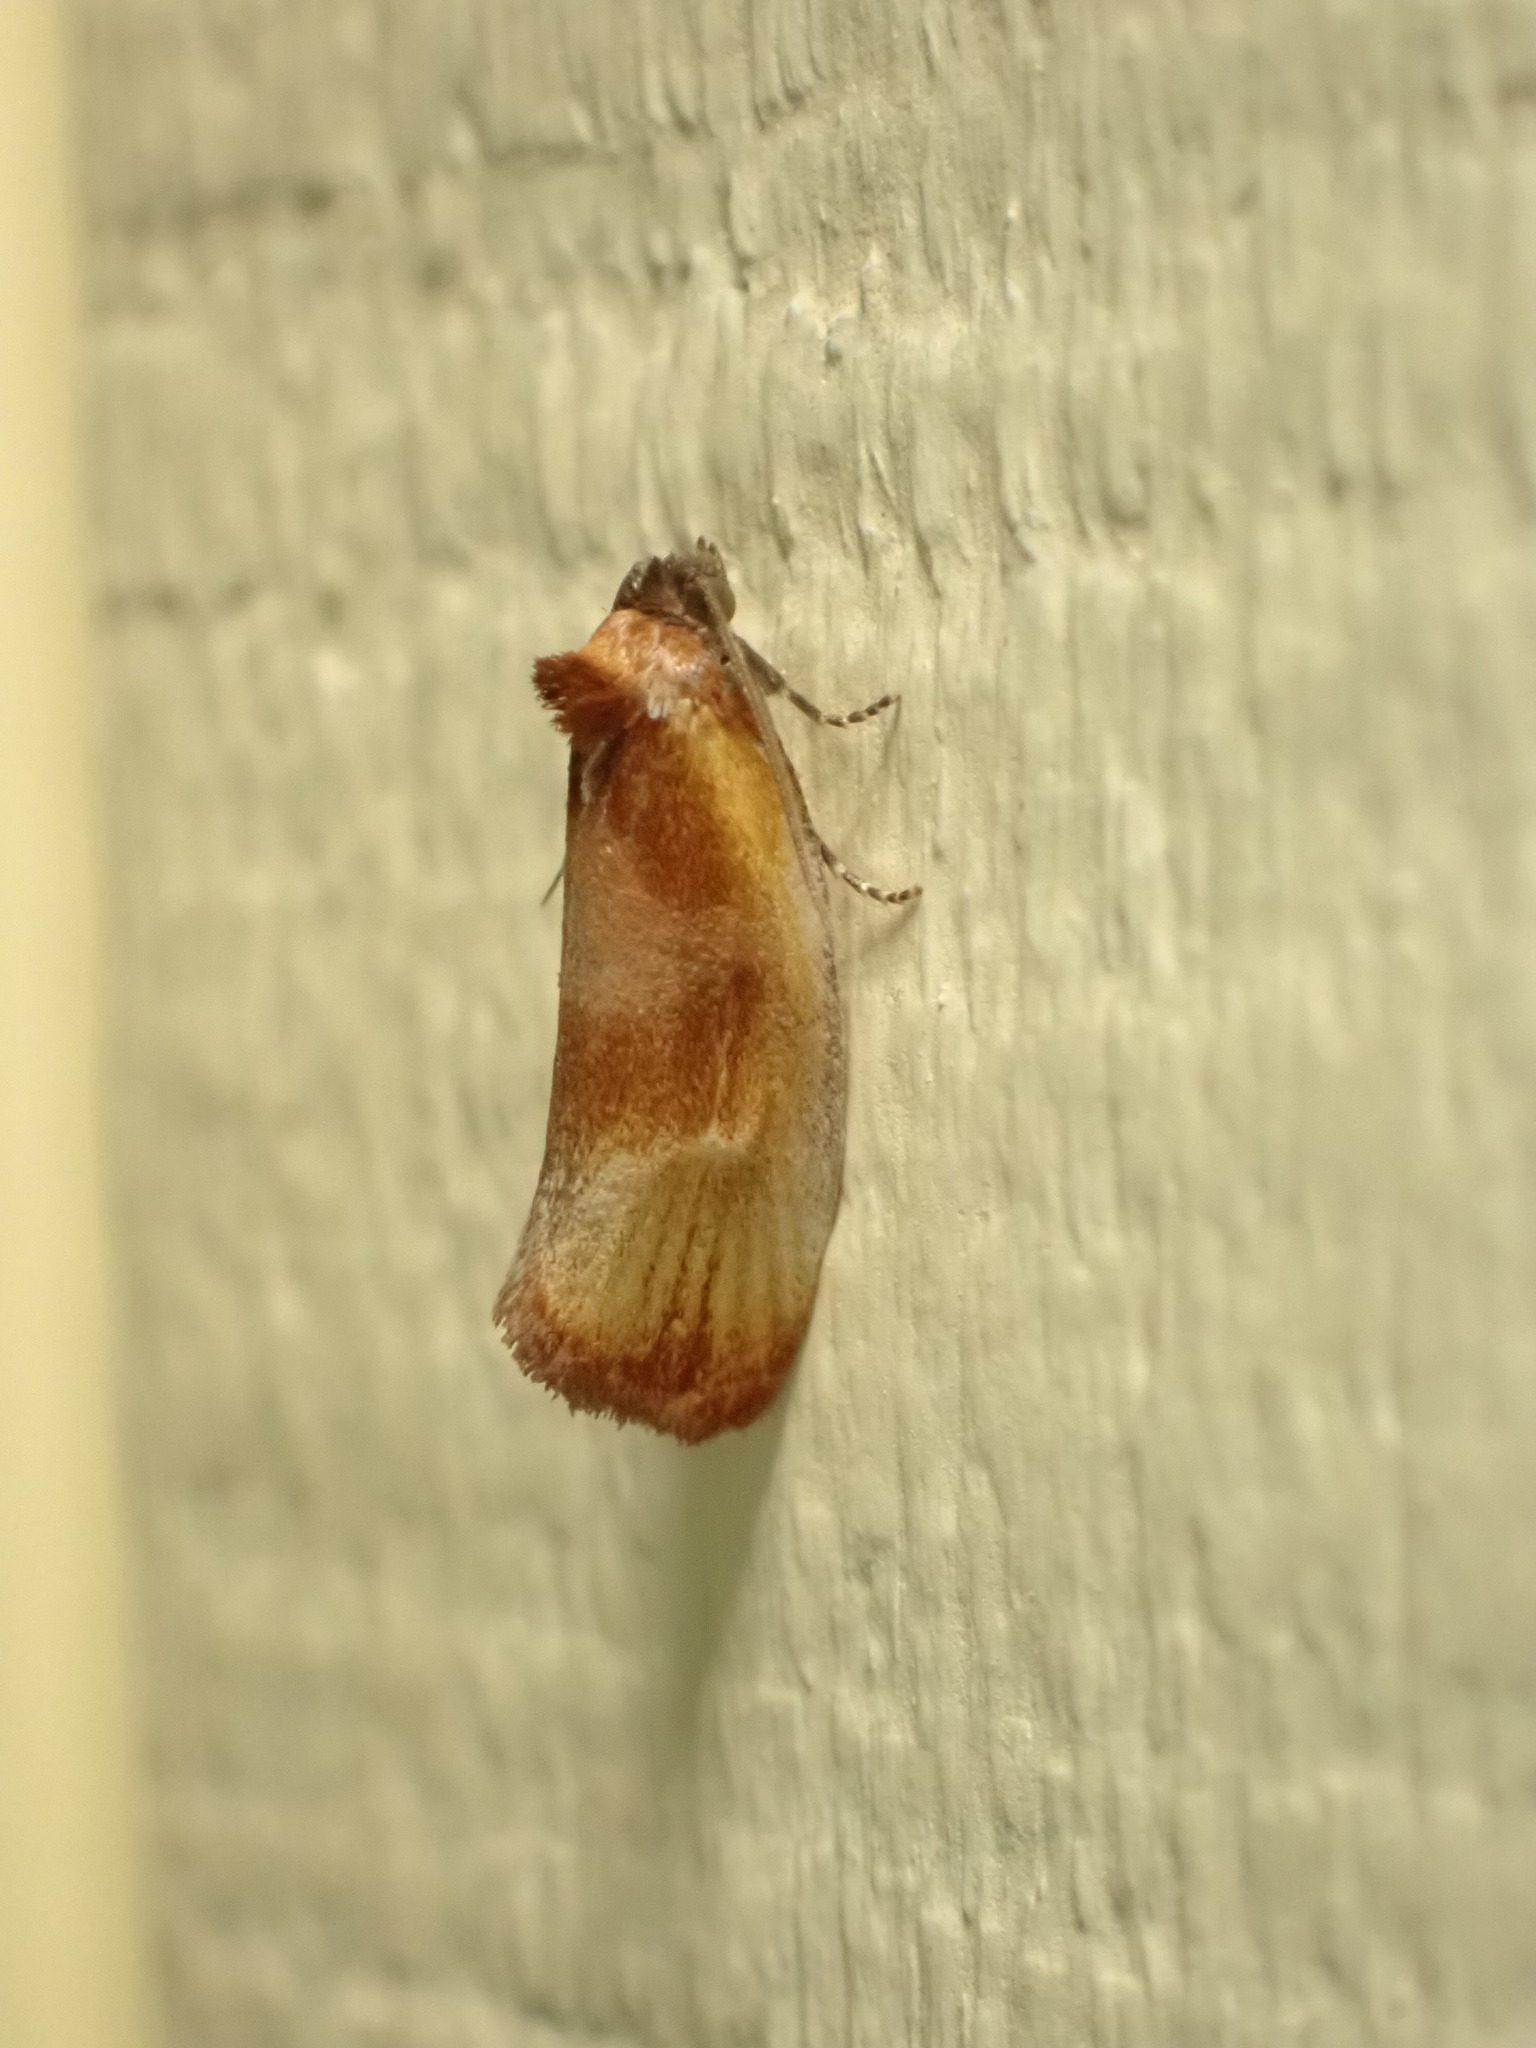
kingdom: Animalia
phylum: Arthropoda
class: Insecta
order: Lepidoptera
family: Tortricidae
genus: Eulia
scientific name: Eulia ministrana
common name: Brassy twist
